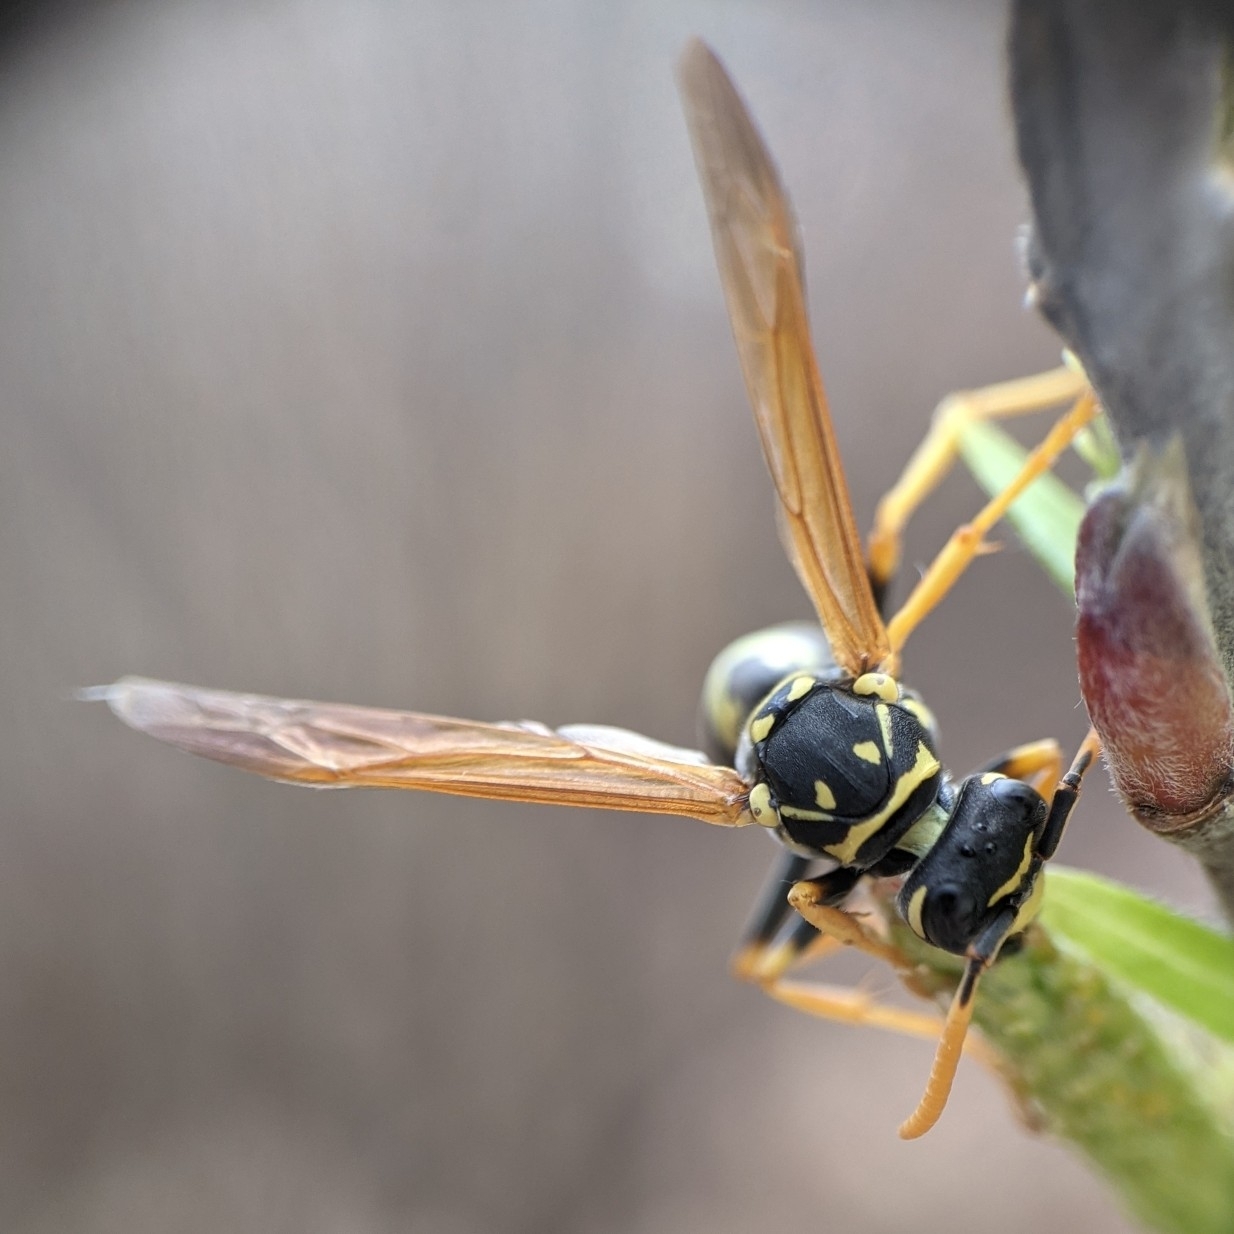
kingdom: Animalia
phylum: Arthropoda
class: Insecta
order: Hymenoptera
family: Eumenidae
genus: Polistes
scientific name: Polistes dominula
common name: Paper wasp
